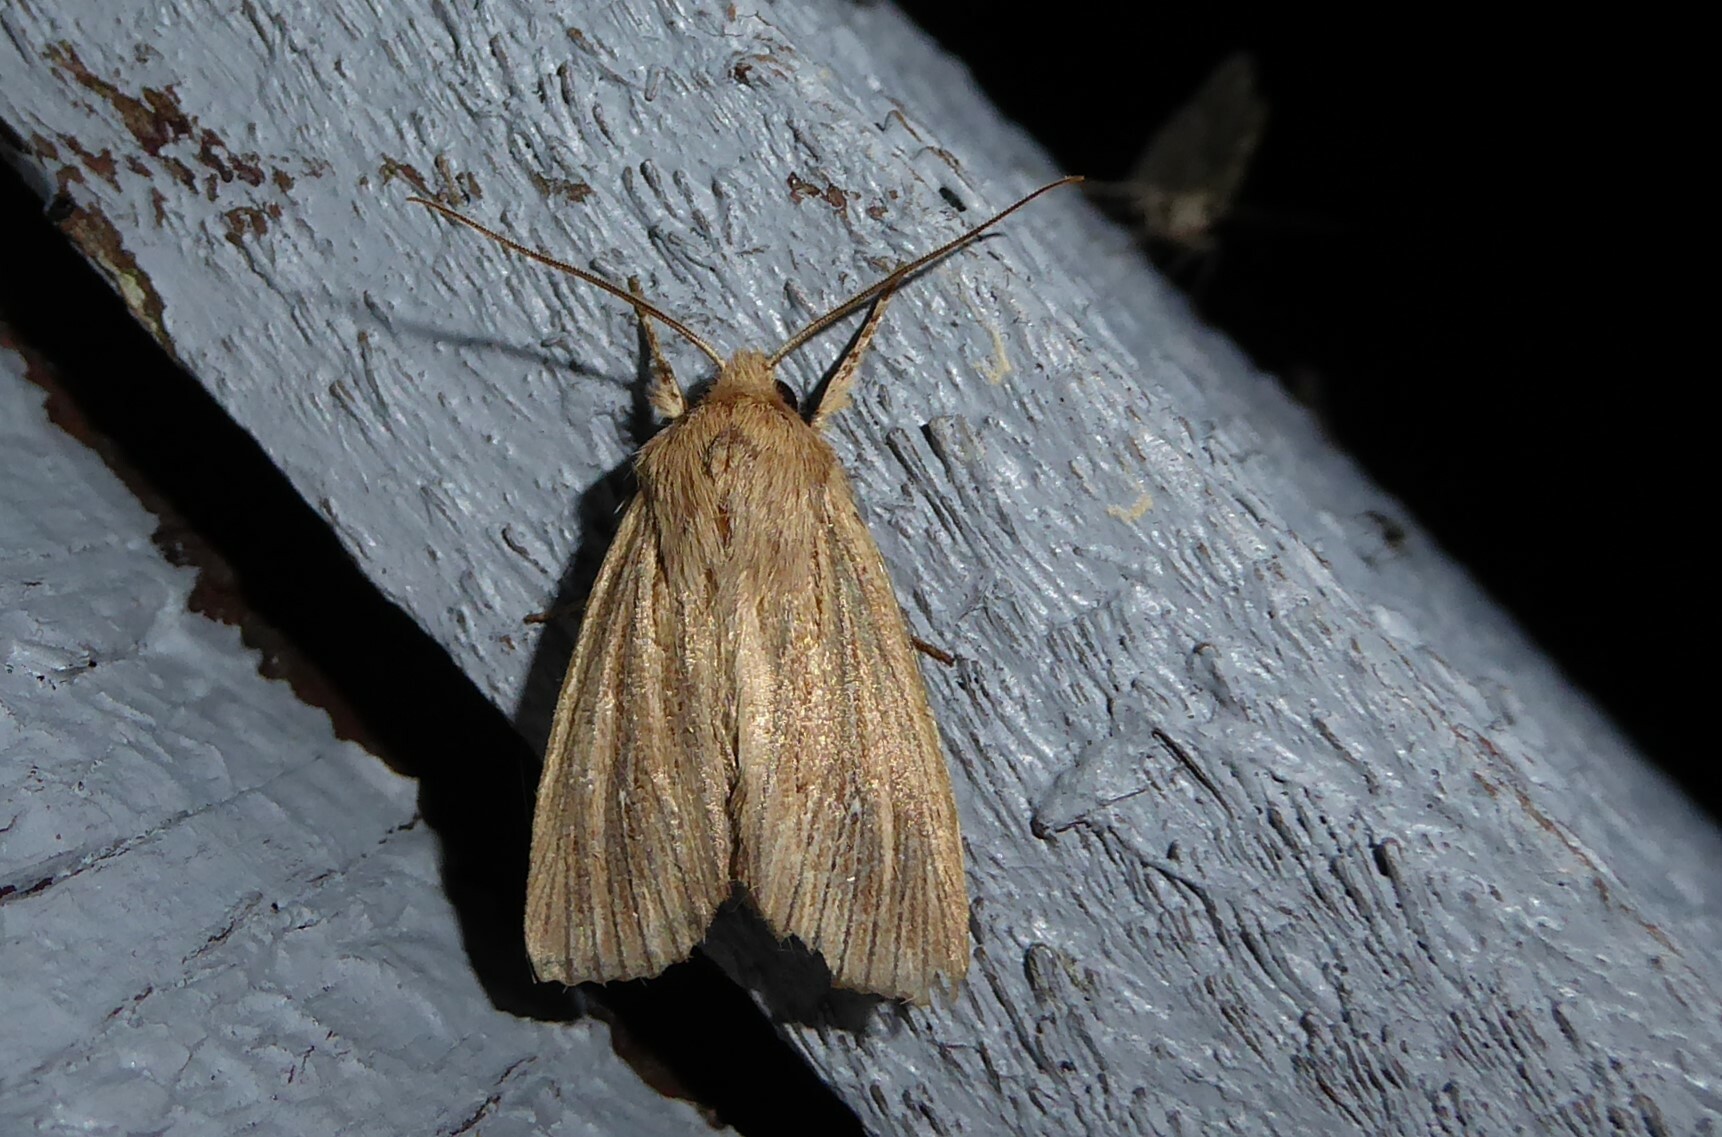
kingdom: Animalia
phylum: Arthropoda
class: Insecta
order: Lepidoptera
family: Noctuidae
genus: Ichneutica
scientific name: Ichneutica arotis
